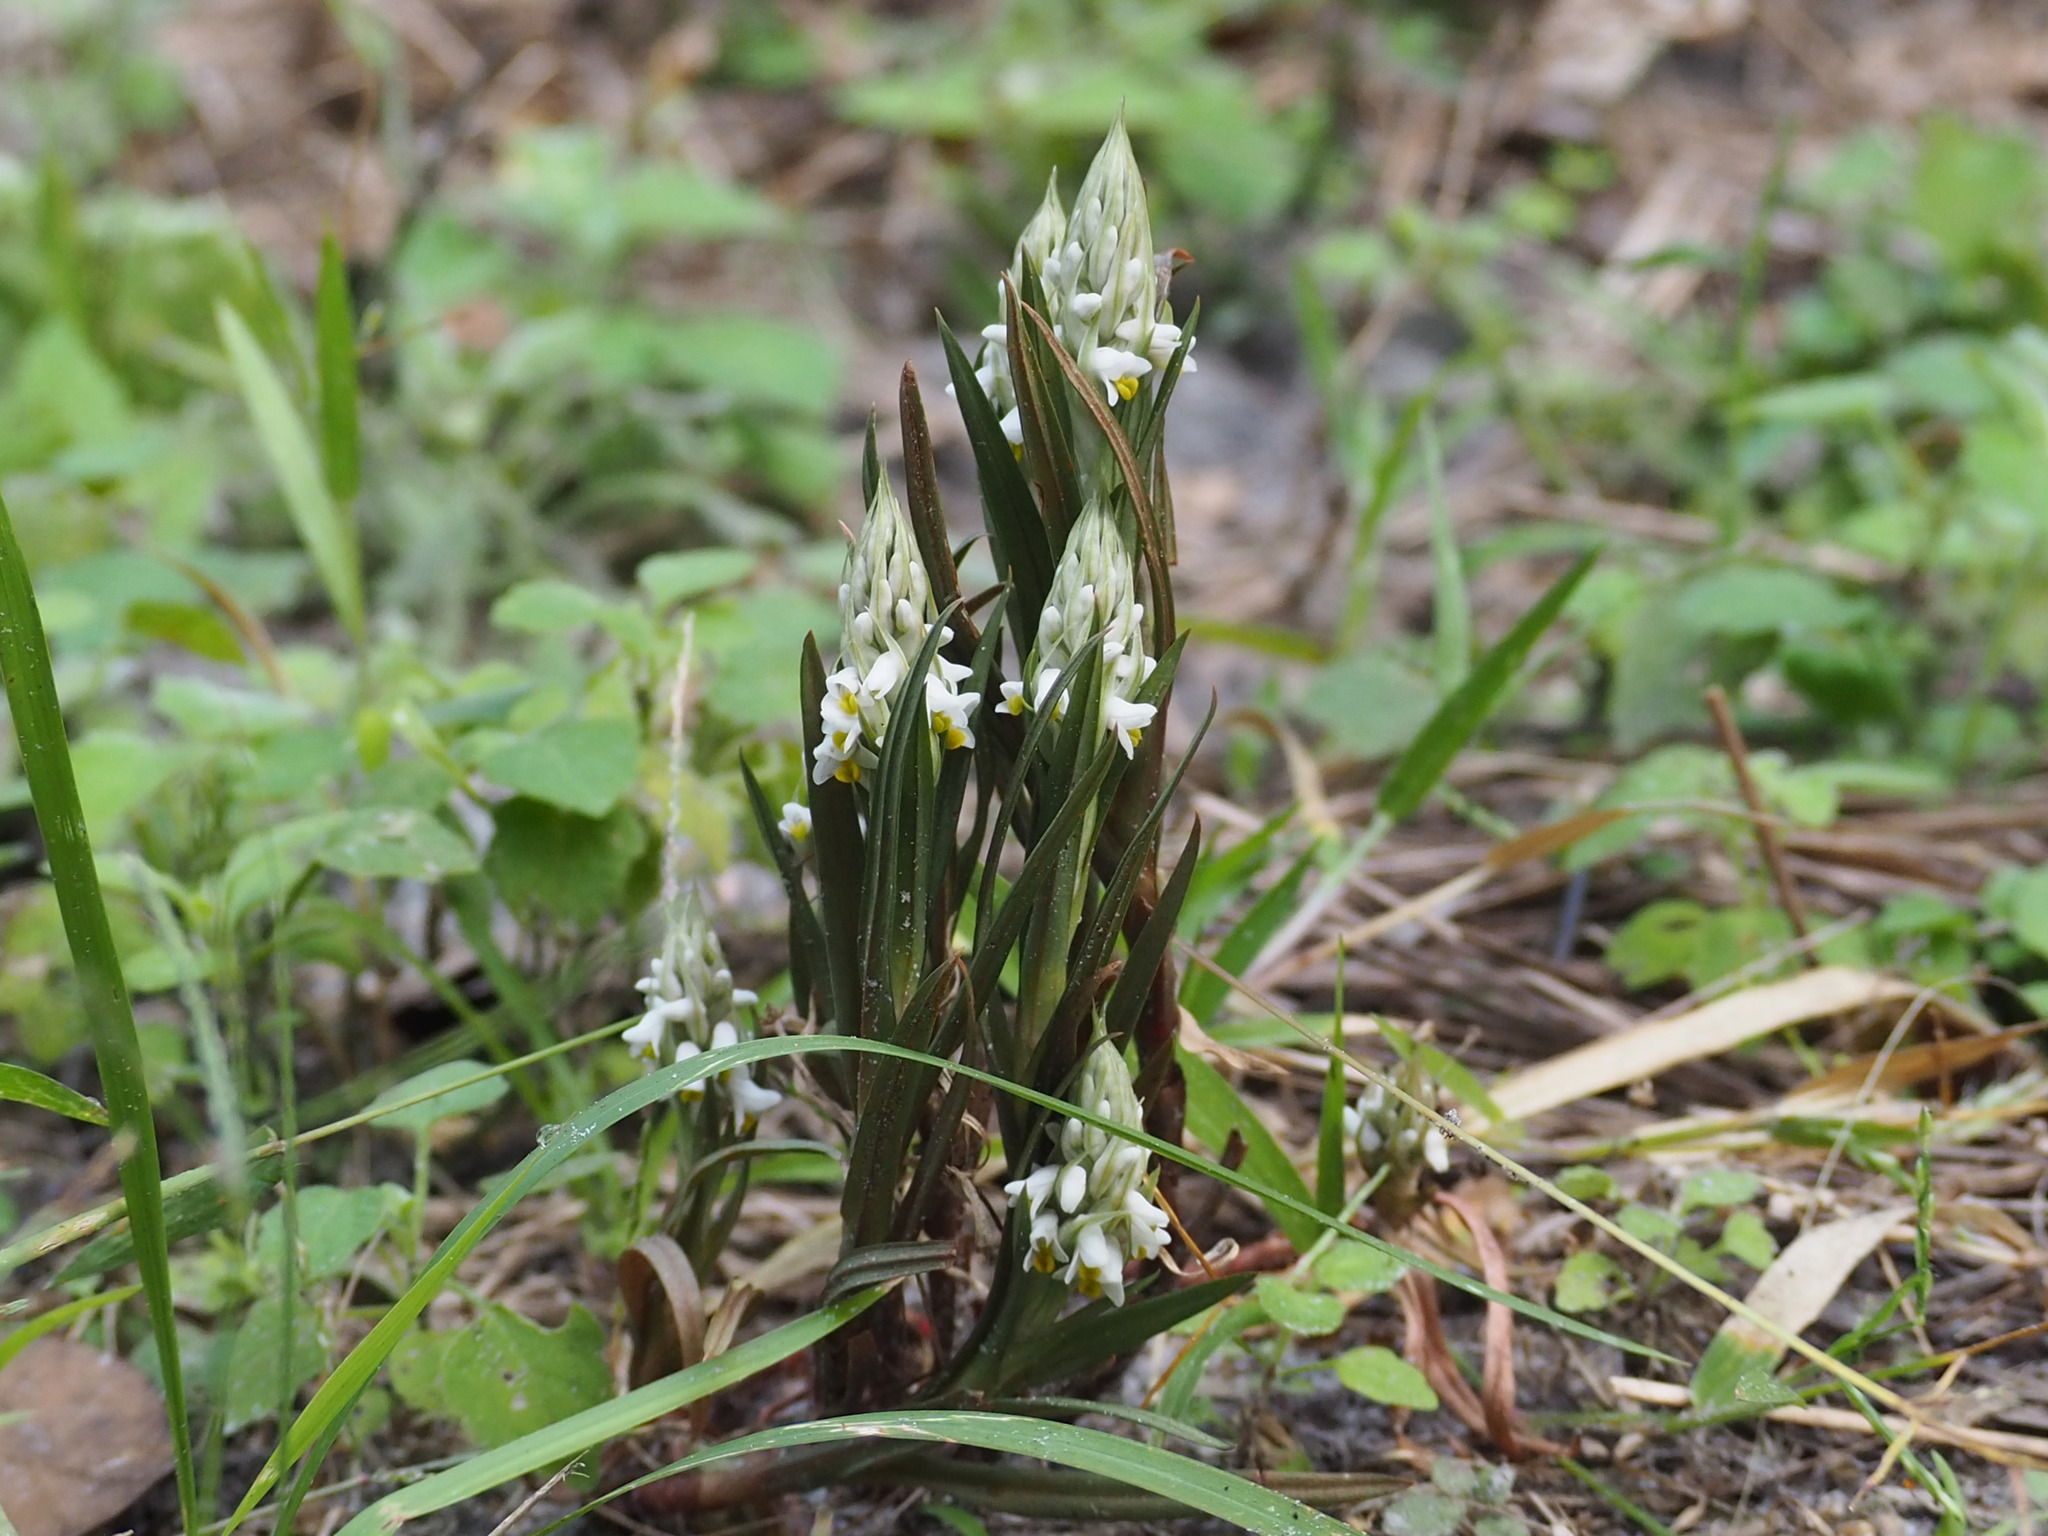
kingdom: Plantae
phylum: Tracheophyta
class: Liliopsida
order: Asparagales
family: Orchidaceae
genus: Zeuxine
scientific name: Zeuxine strateumatica
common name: Soldier's orchid
